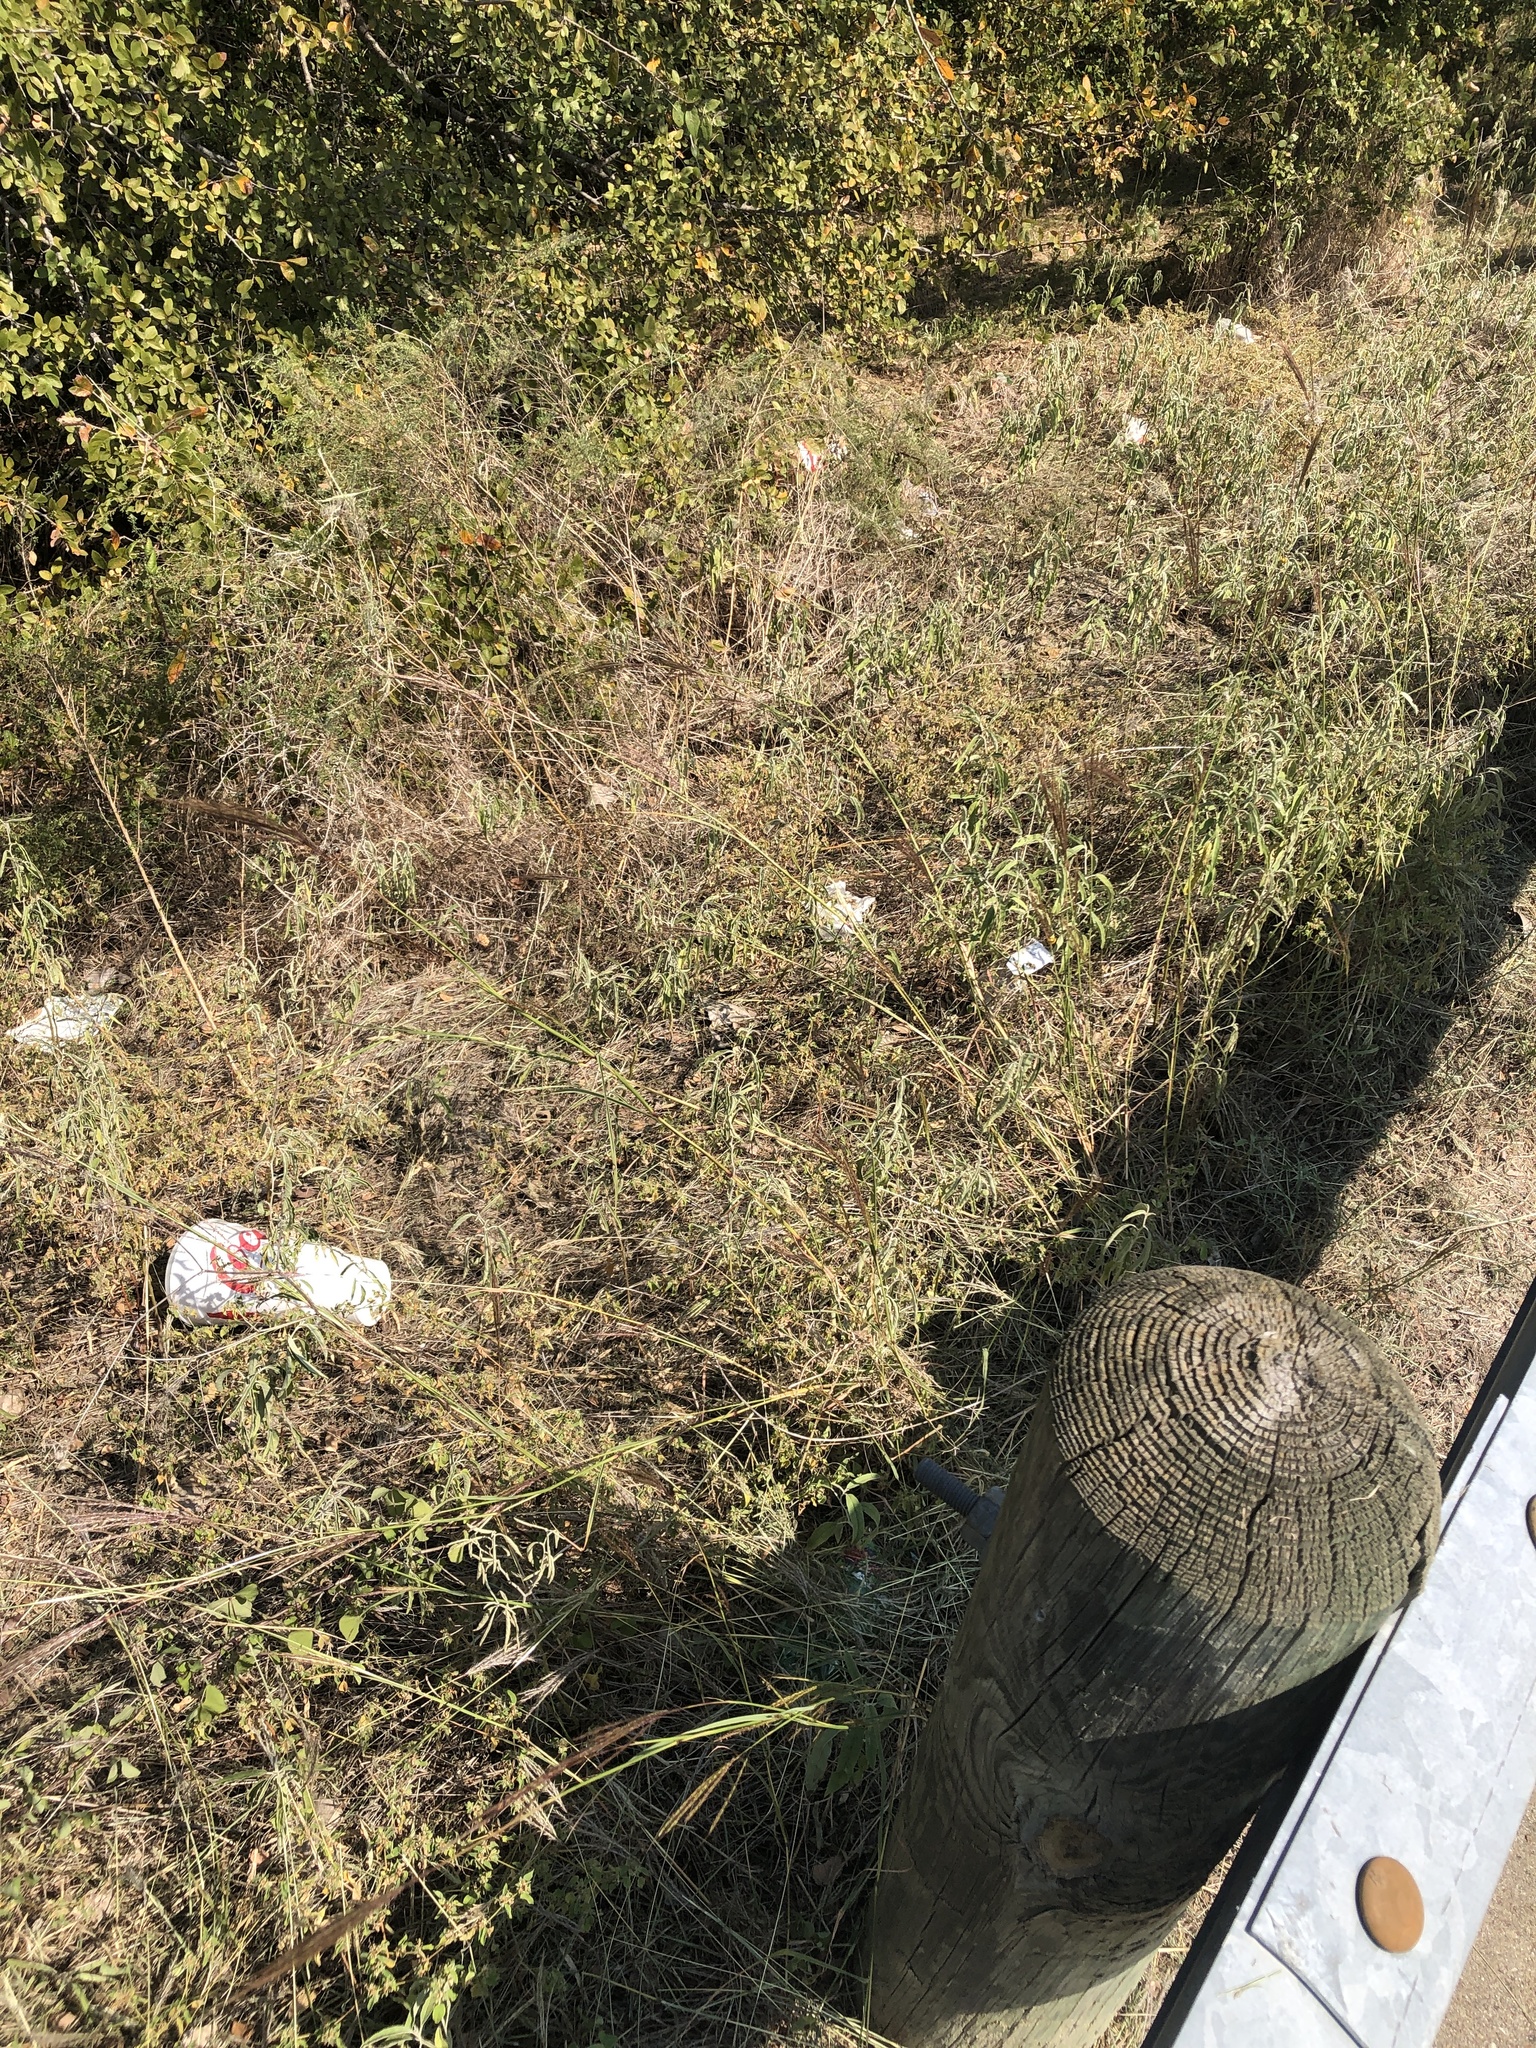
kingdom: Plantae
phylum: Tracheophyta
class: Liliopsida
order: Poales
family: Poaceae
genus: Bothriochloa
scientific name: Bothriochloa ischaemum
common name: Yellow bluestem
